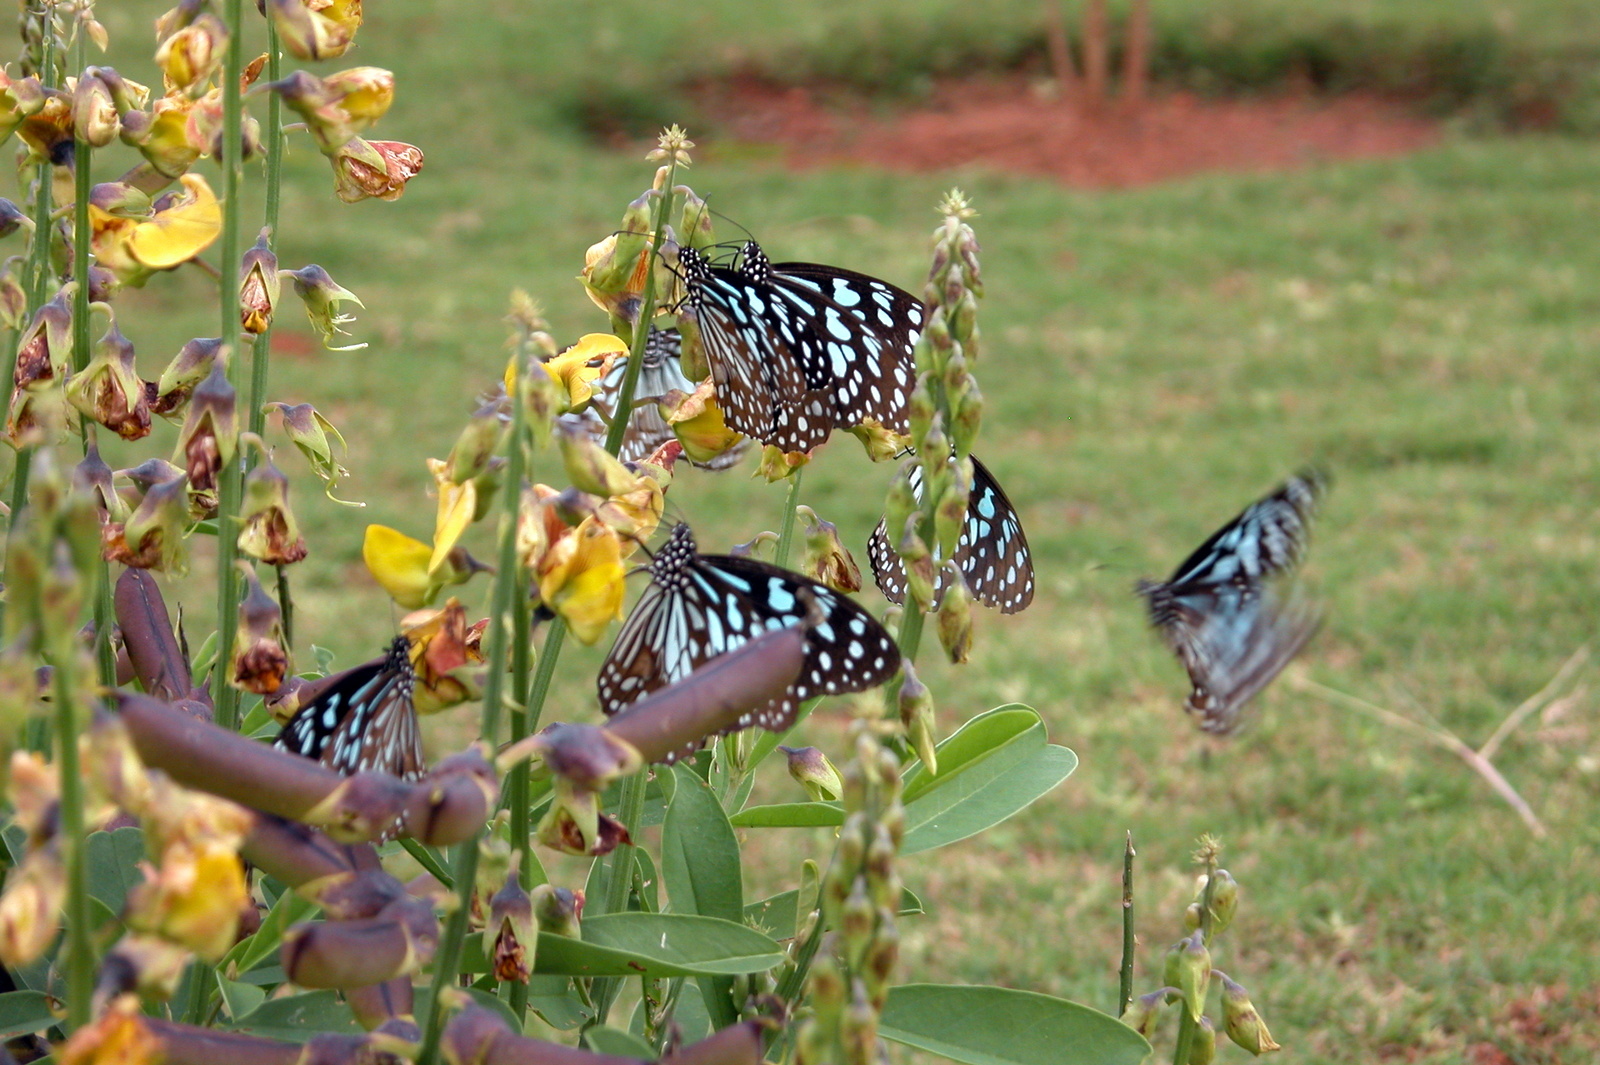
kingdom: Animalia
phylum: Arthropoda
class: Insecta
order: Lepidoptera
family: Nymphalidae
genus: Tirumala
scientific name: Tirumala limniace
